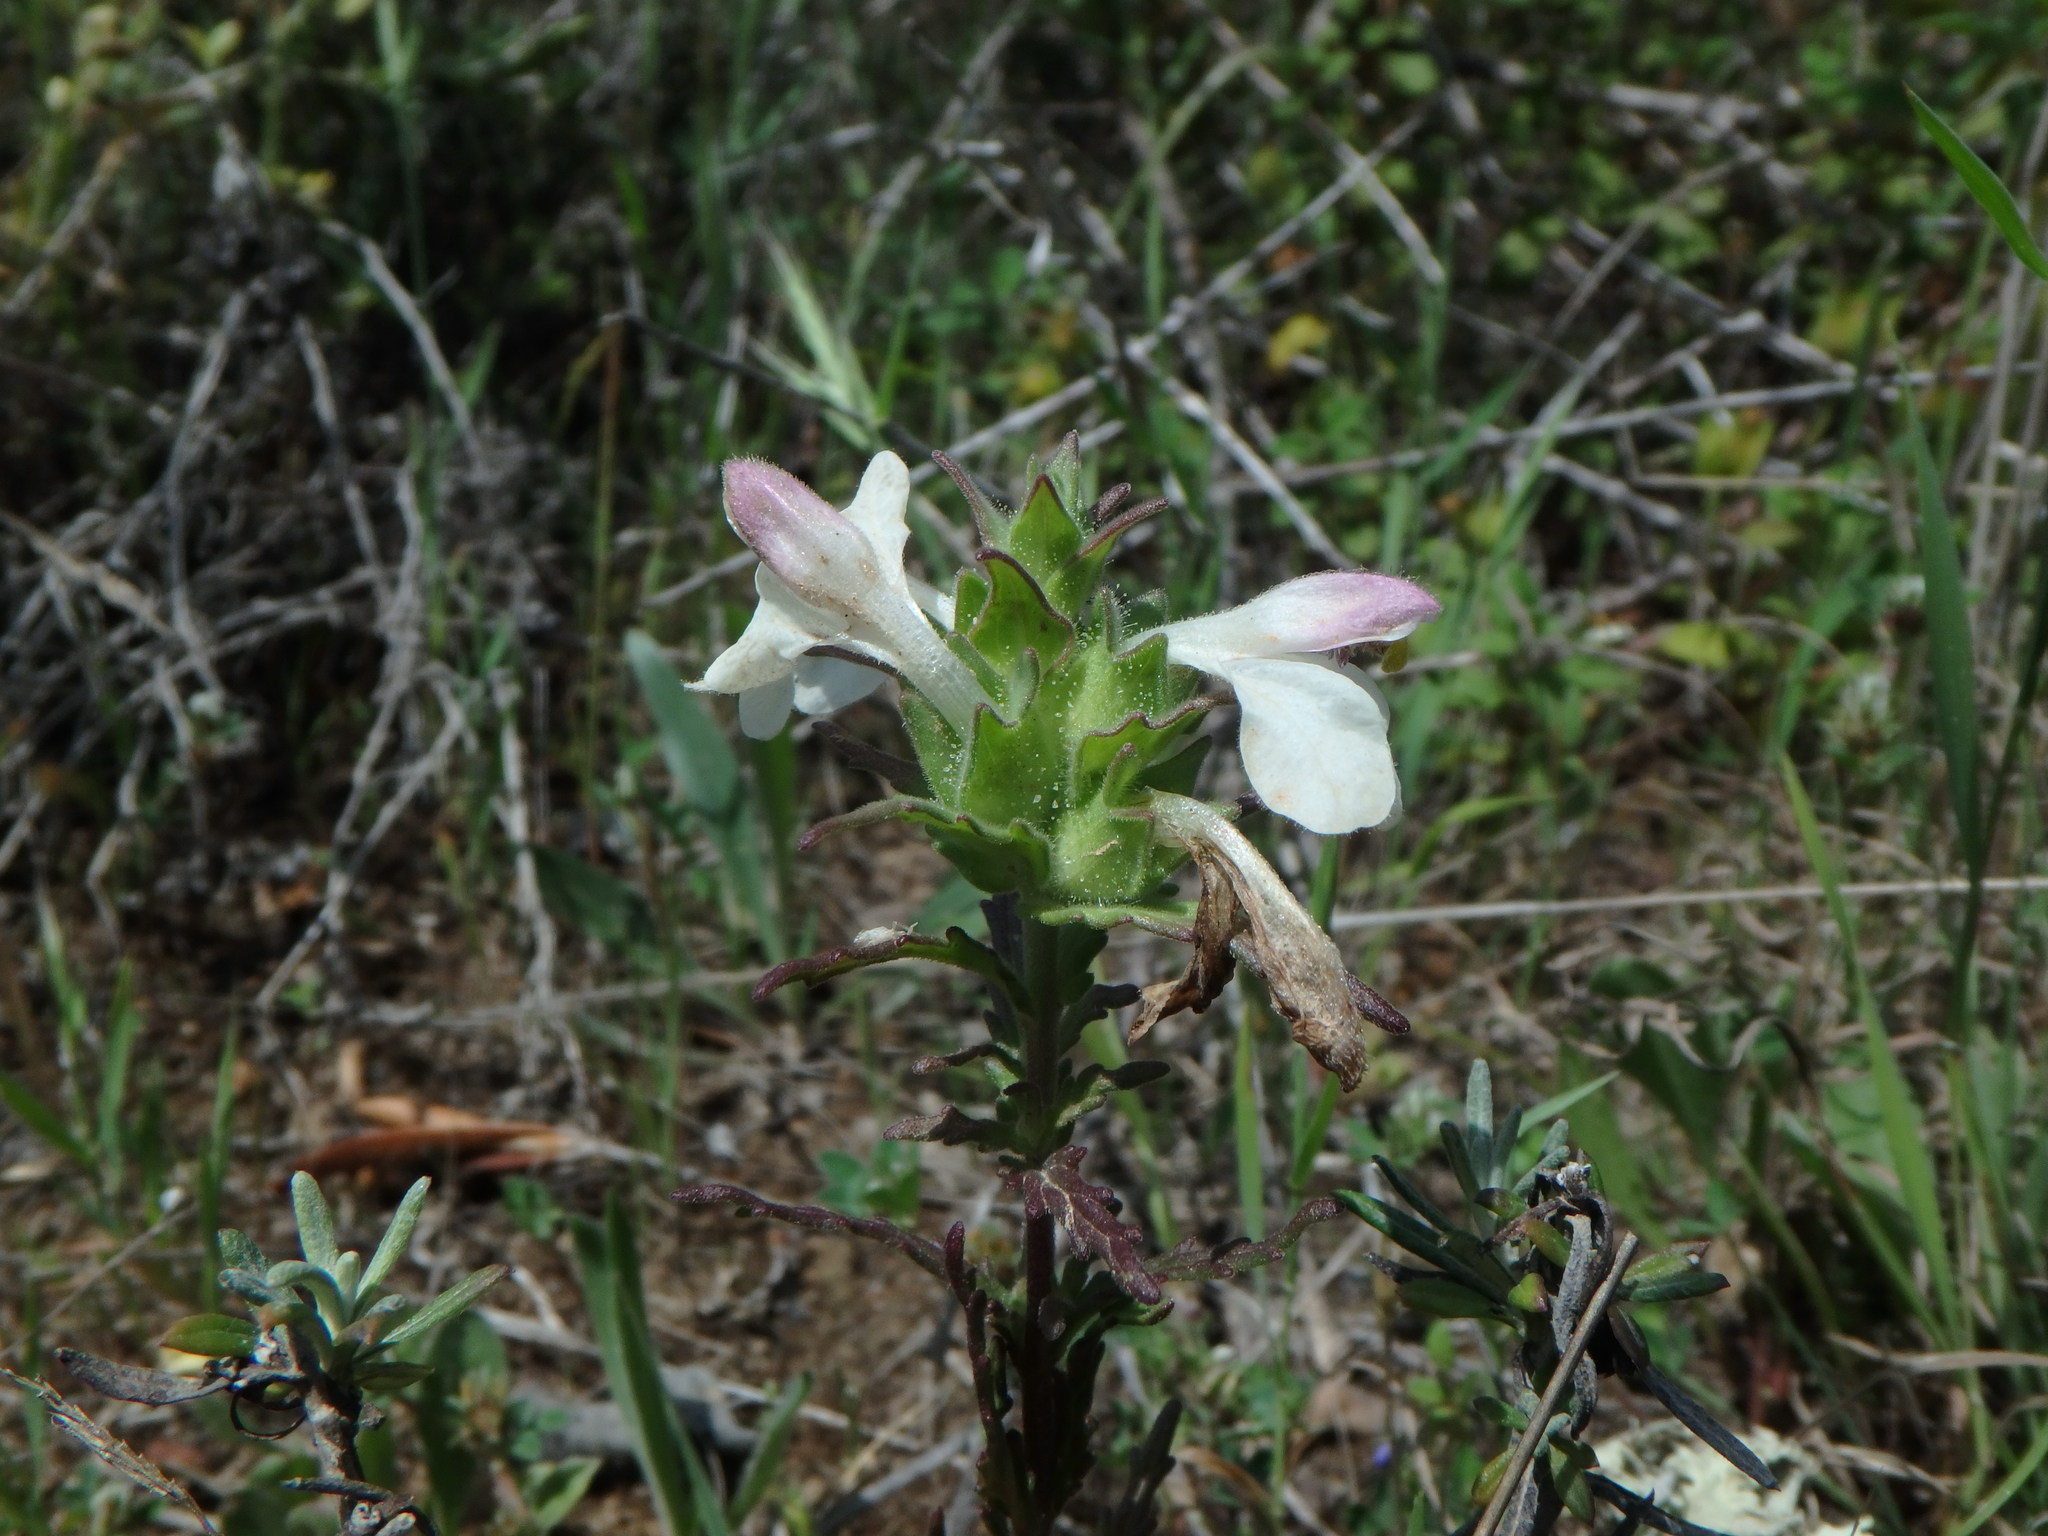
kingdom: Plantae
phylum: Tracheophyta
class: Magnoliopsida
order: Lamiales
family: Orobanchaceae
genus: Bellardia
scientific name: Bellardia trixago
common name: Mediterranean lineseed
